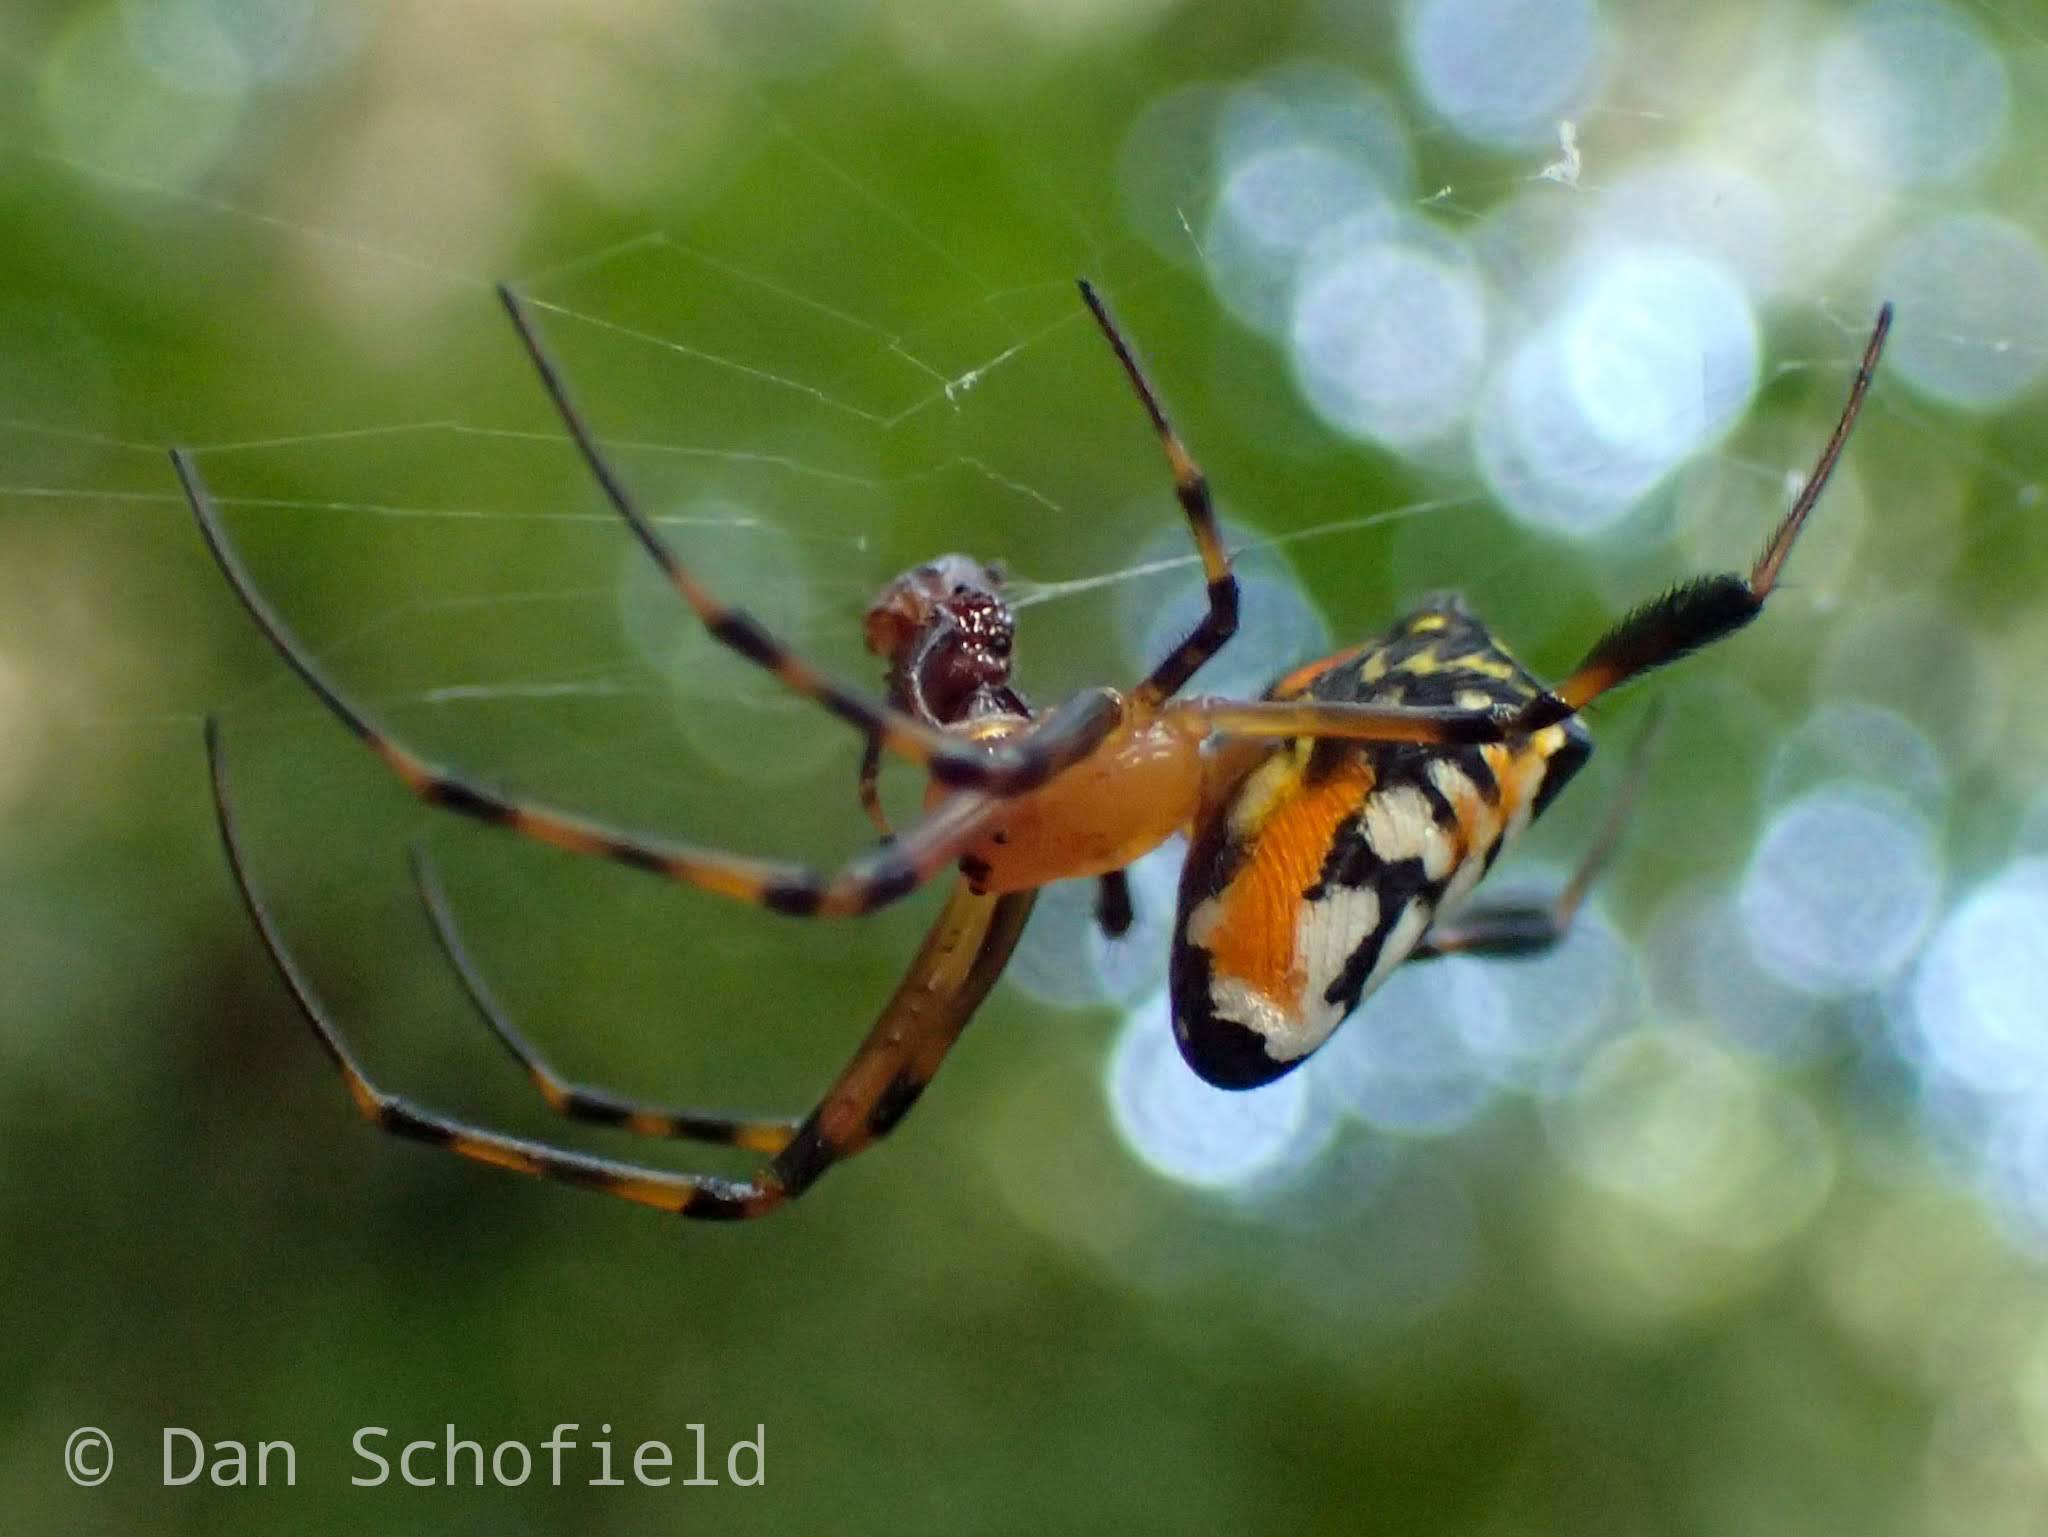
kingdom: Animalia
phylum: Arthropoda
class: Arachnida
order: Araneae
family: Tetragnathidae
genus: Leucauge
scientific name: Leucauge fastigata
